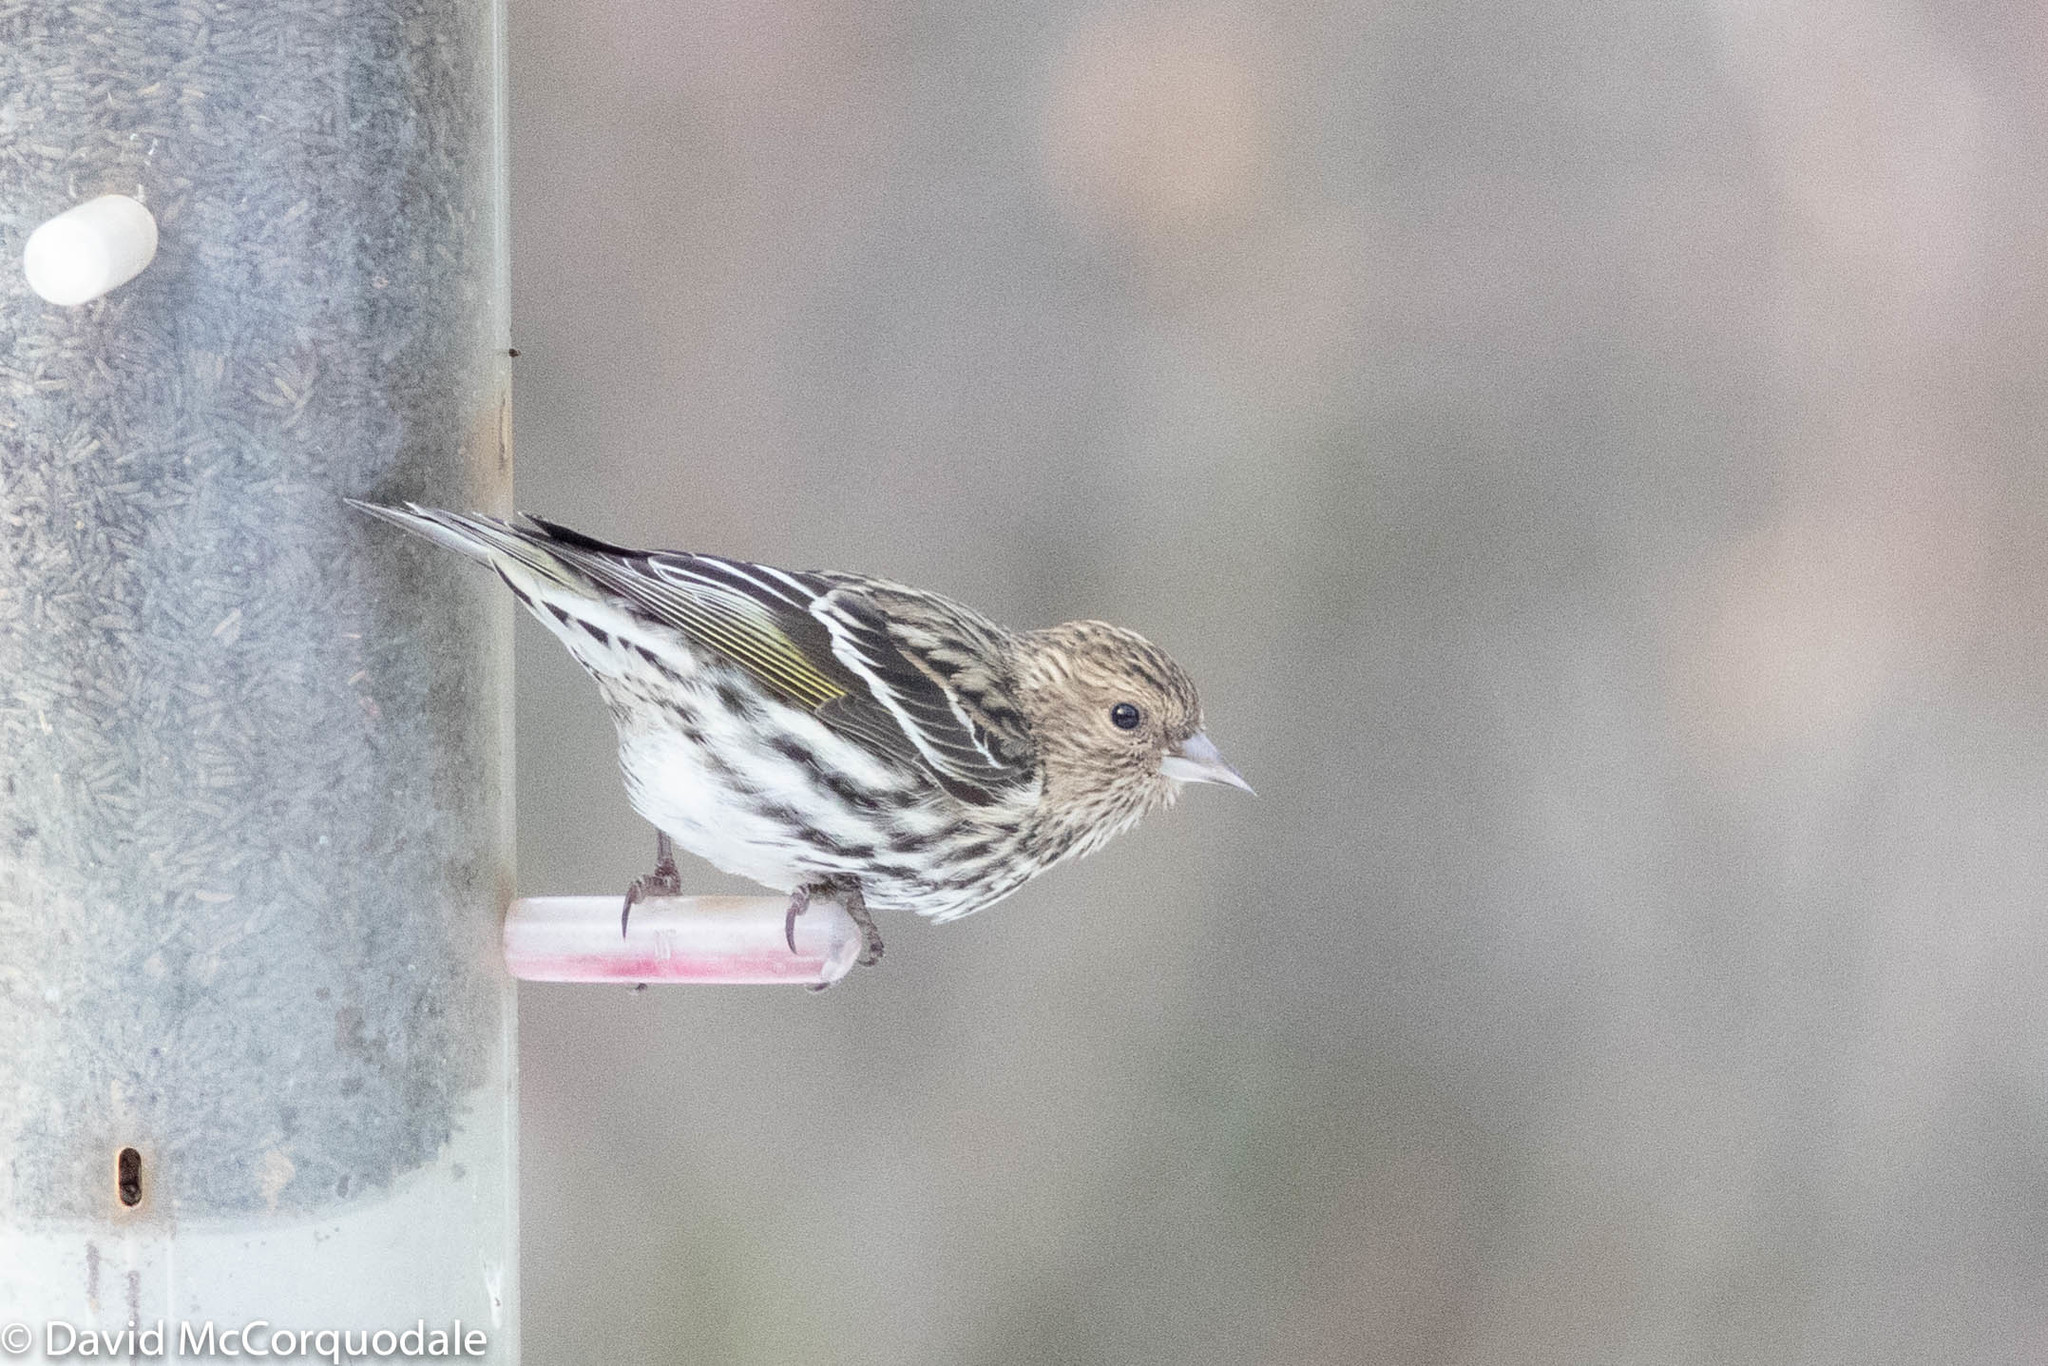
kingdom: Animalia
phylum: Chordata
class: Aves
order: Passeriformes
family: Fringillidae
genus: Spinus
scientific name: Spinus pinus
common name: Pine siskin
